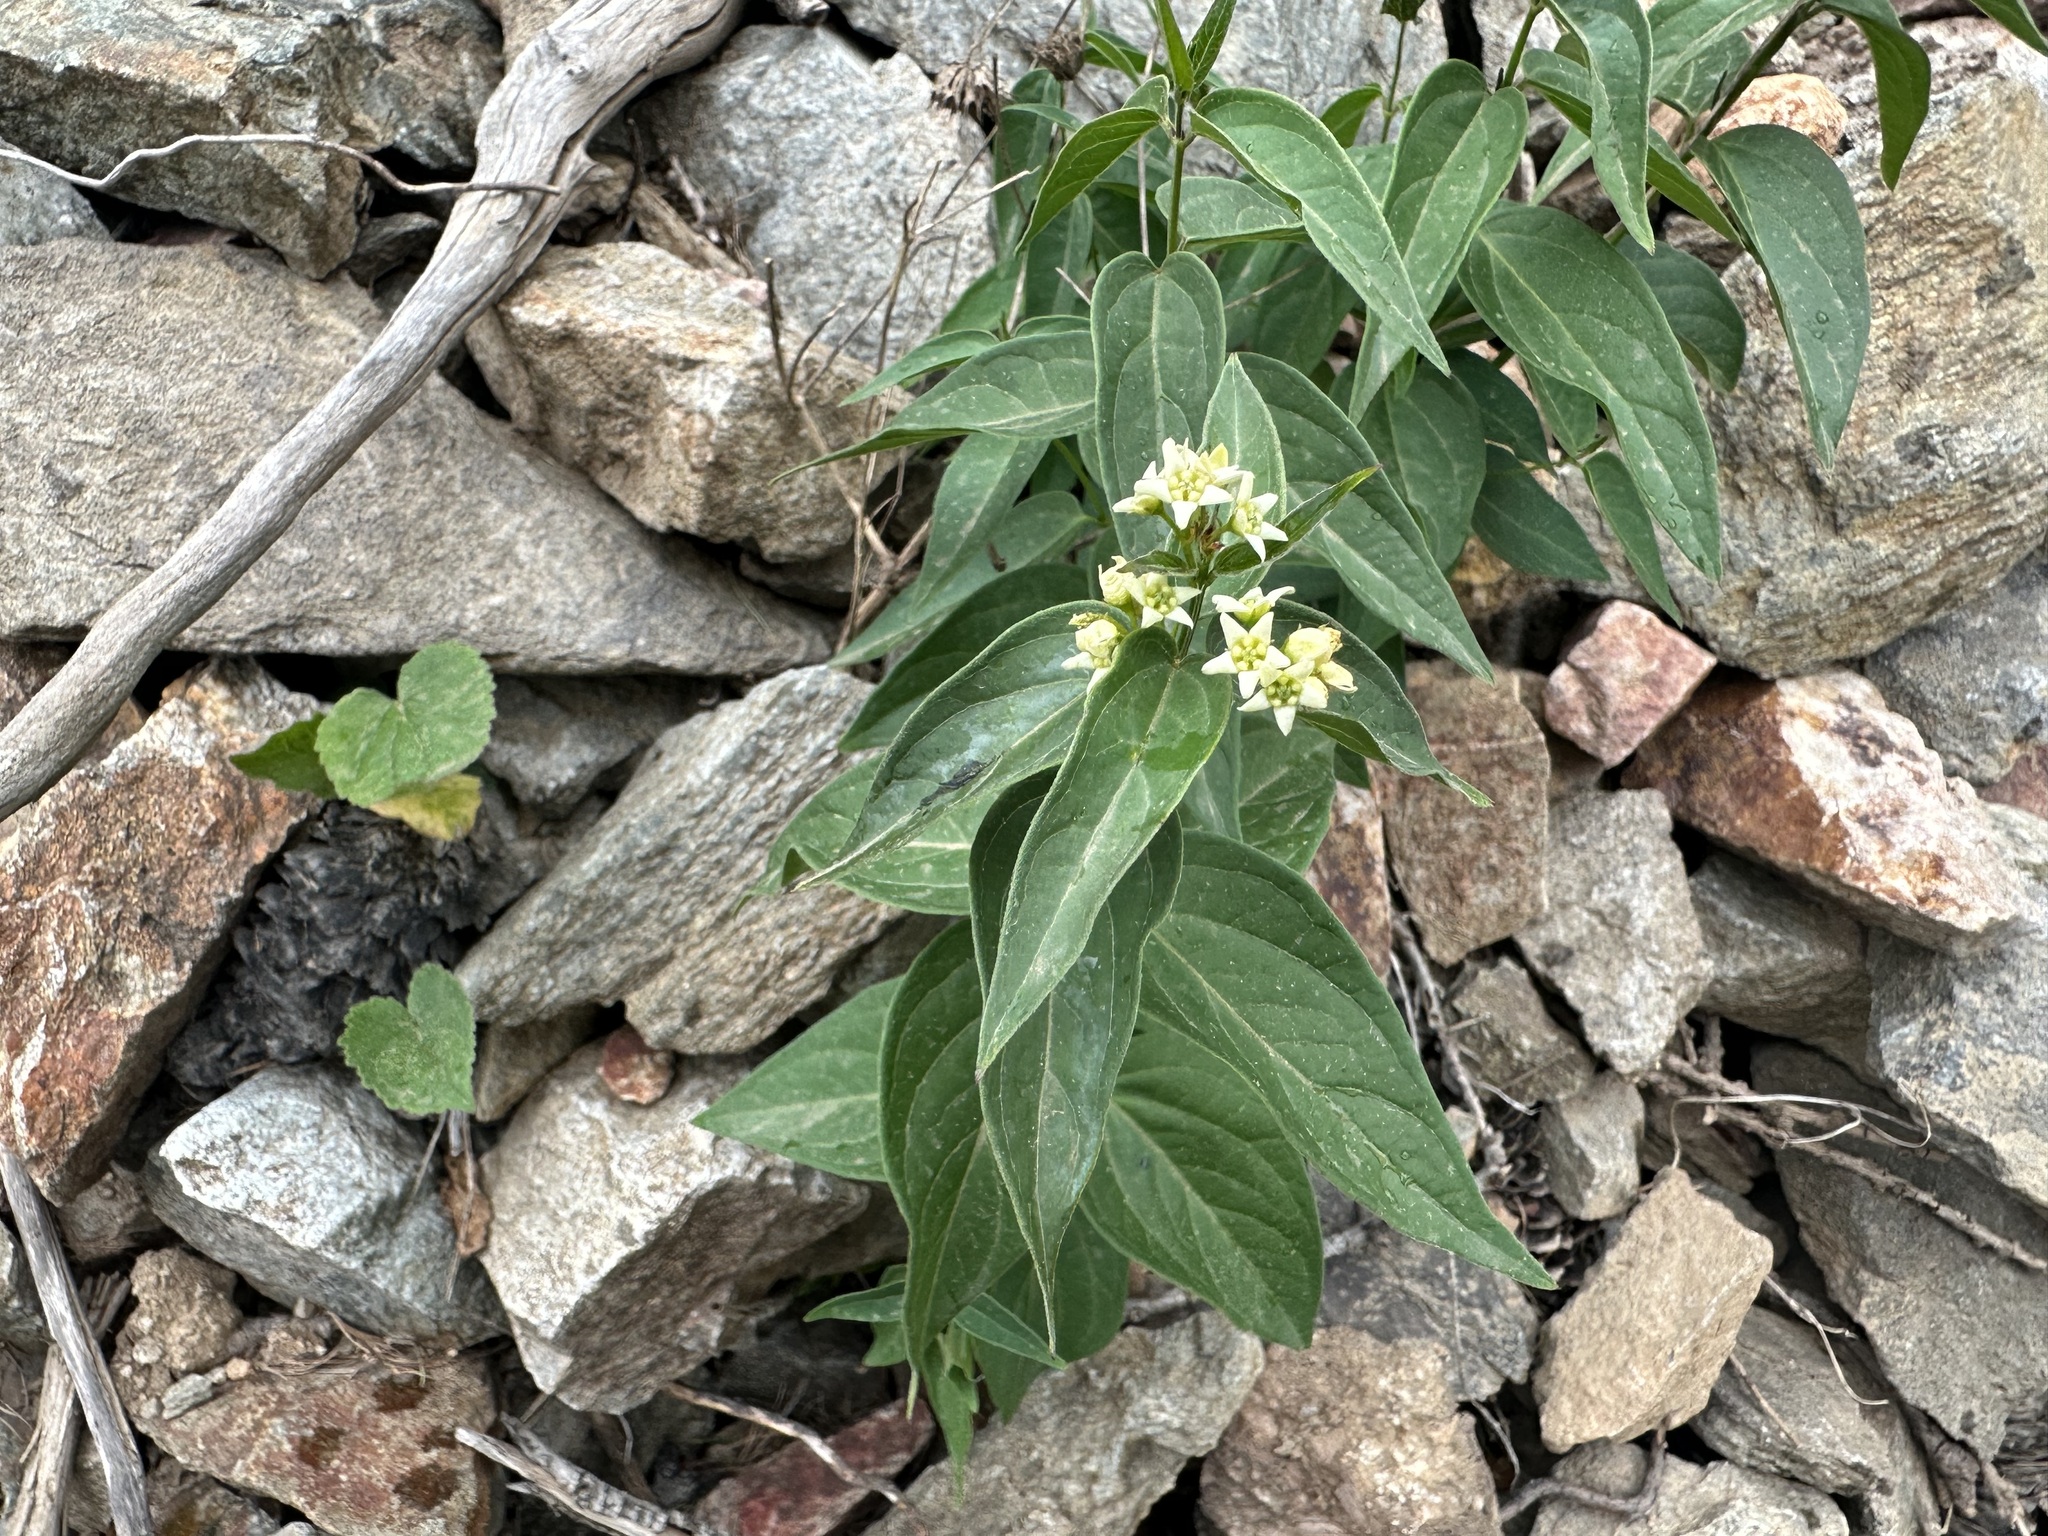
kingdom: Plantae
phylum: Tracheophyta
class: Magnoliopsida
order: Gentianales
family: Apocynaceae
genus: Vincetoxicum
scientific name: Vincetoxicum hirundinaria
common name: White swallowwort
